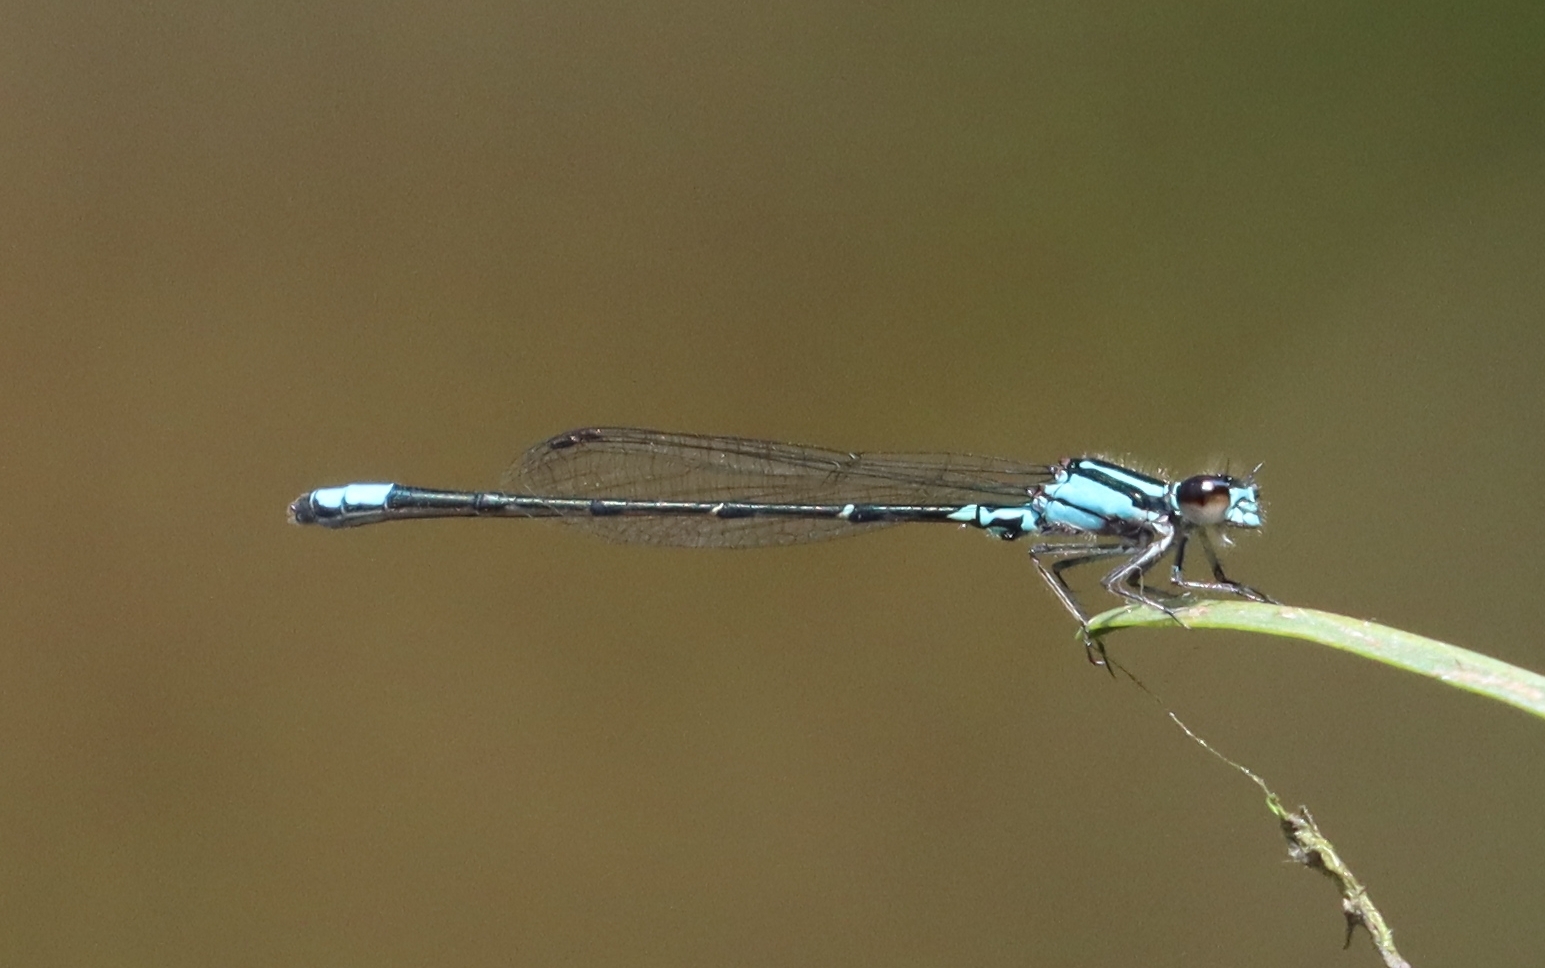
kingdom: Animalia
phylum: Arthropoda
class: Insecta
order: Odonata
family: Coenagrionidae
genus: Enallagma
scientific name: Enallagma geminatum
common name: Skimming bluet
